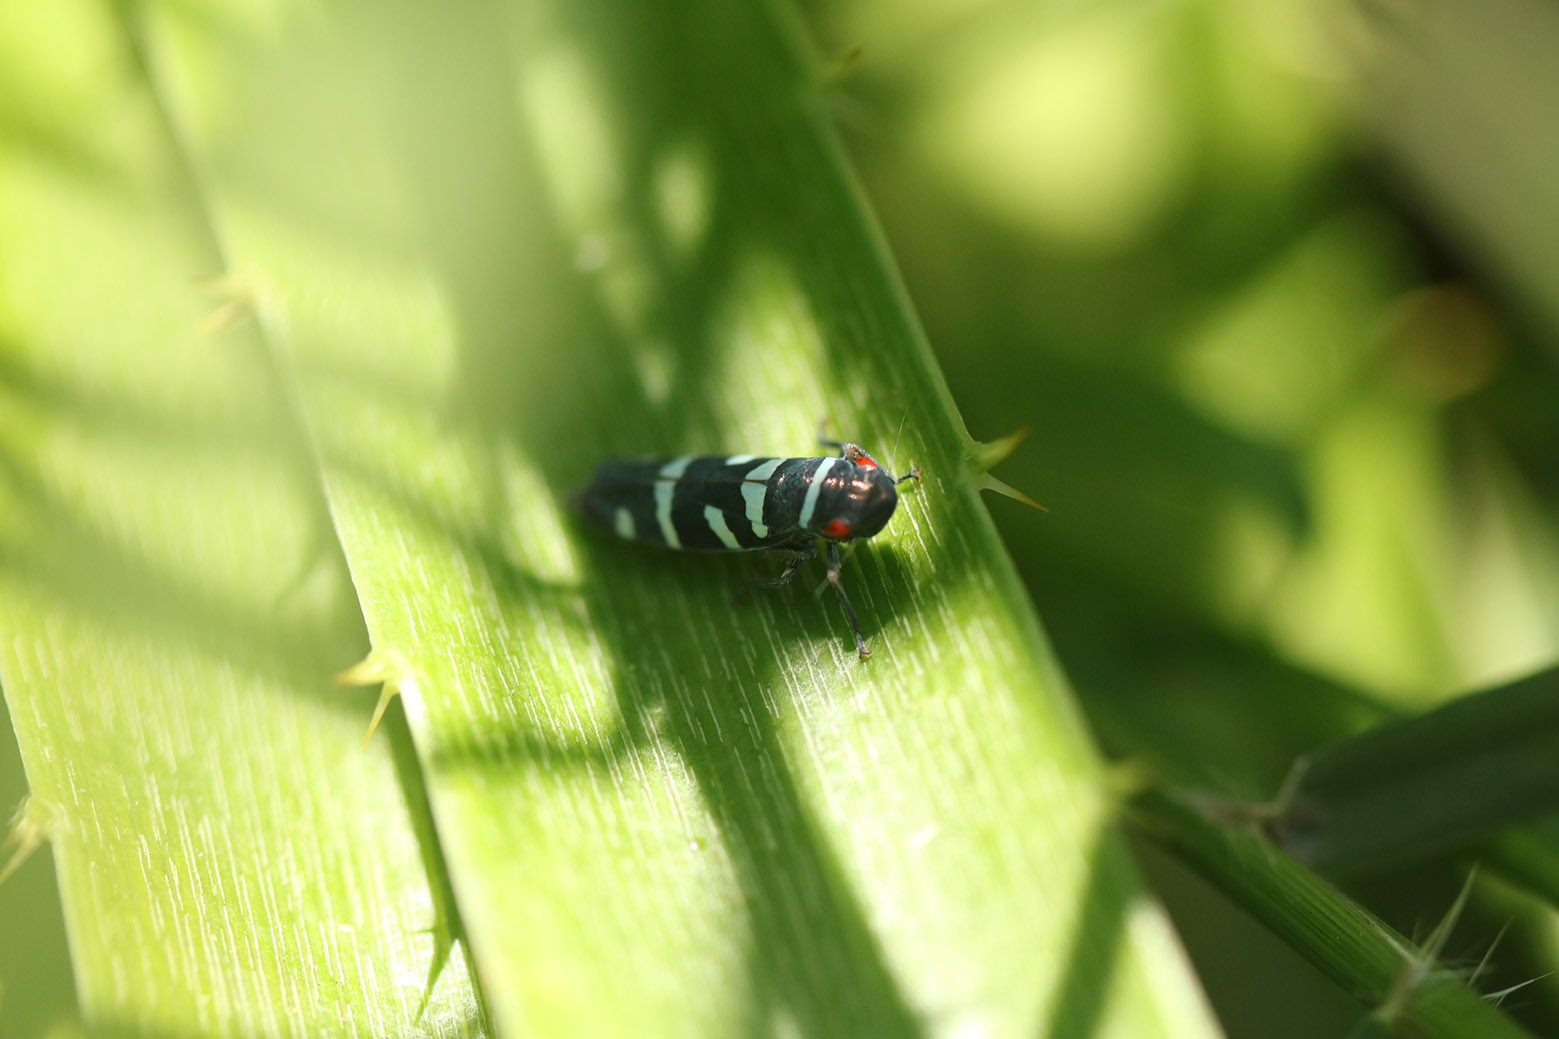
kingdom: Animalia
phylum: Arthropoda
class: Insecta
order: Hemiptera
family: Cicadellidae
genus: Balacha
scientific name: Balacha melanocephala
